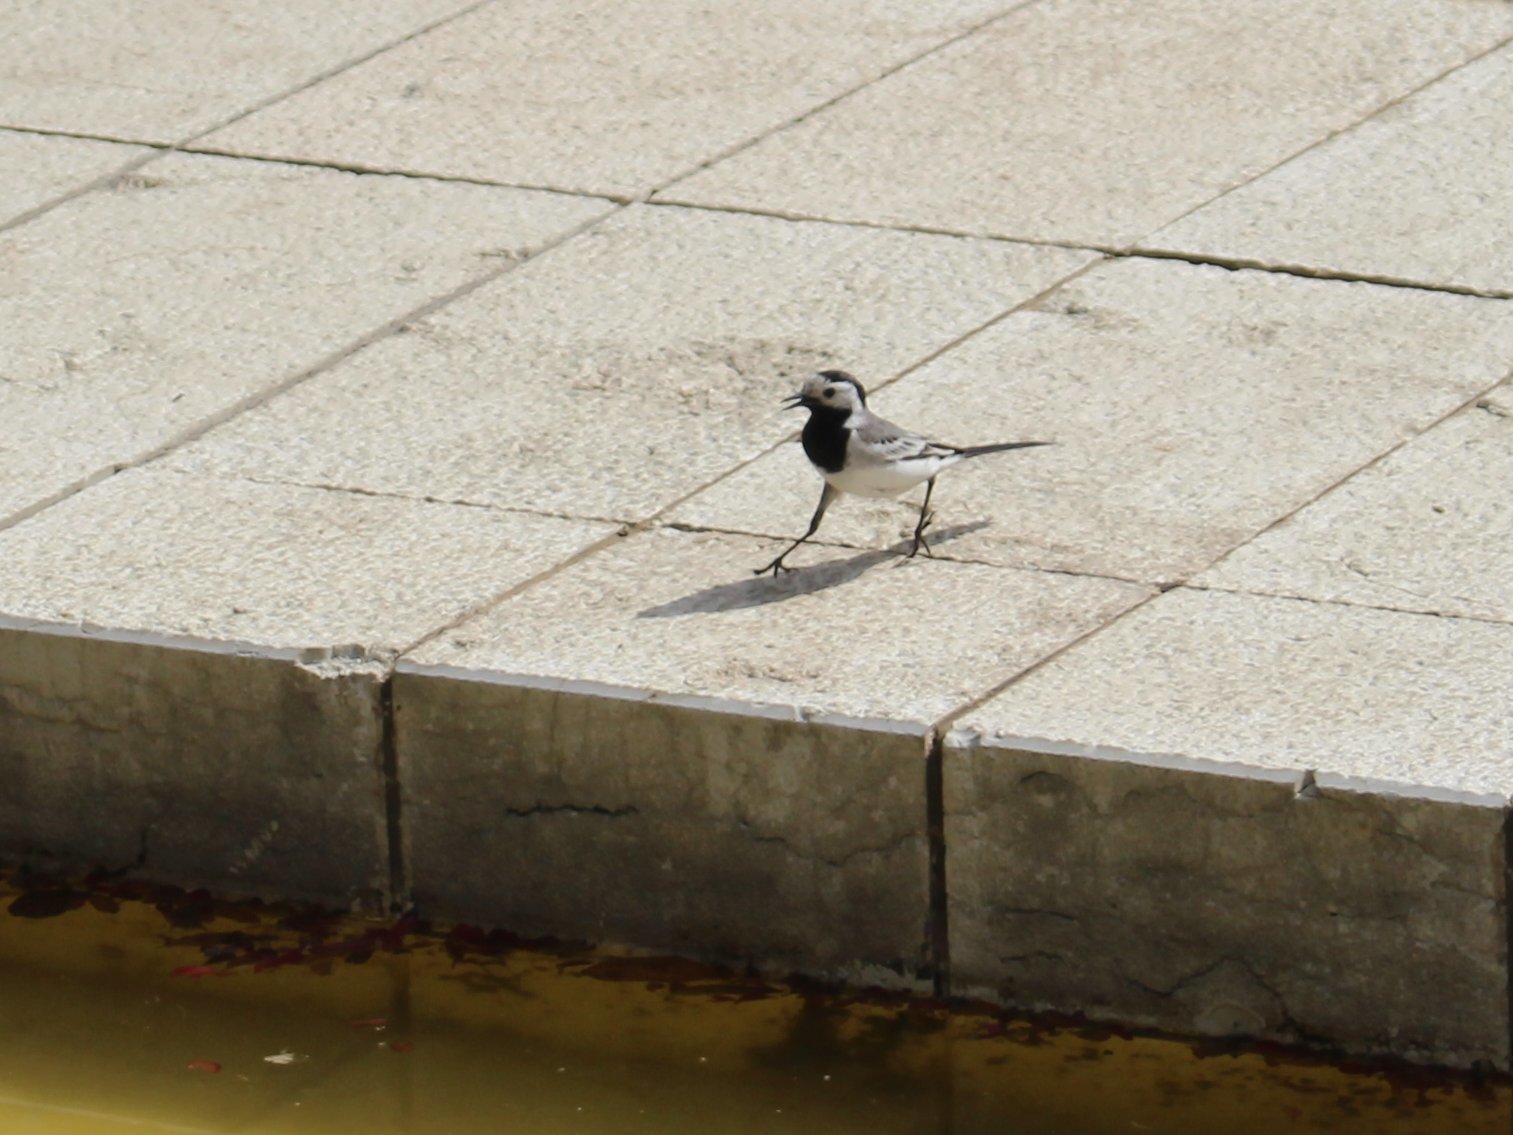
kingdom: Animalia
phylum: Chordata
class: Aves
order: Passeriformes
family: Motacillidae
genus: Motacilla
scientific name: Motacilla alba
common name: White wagtail
